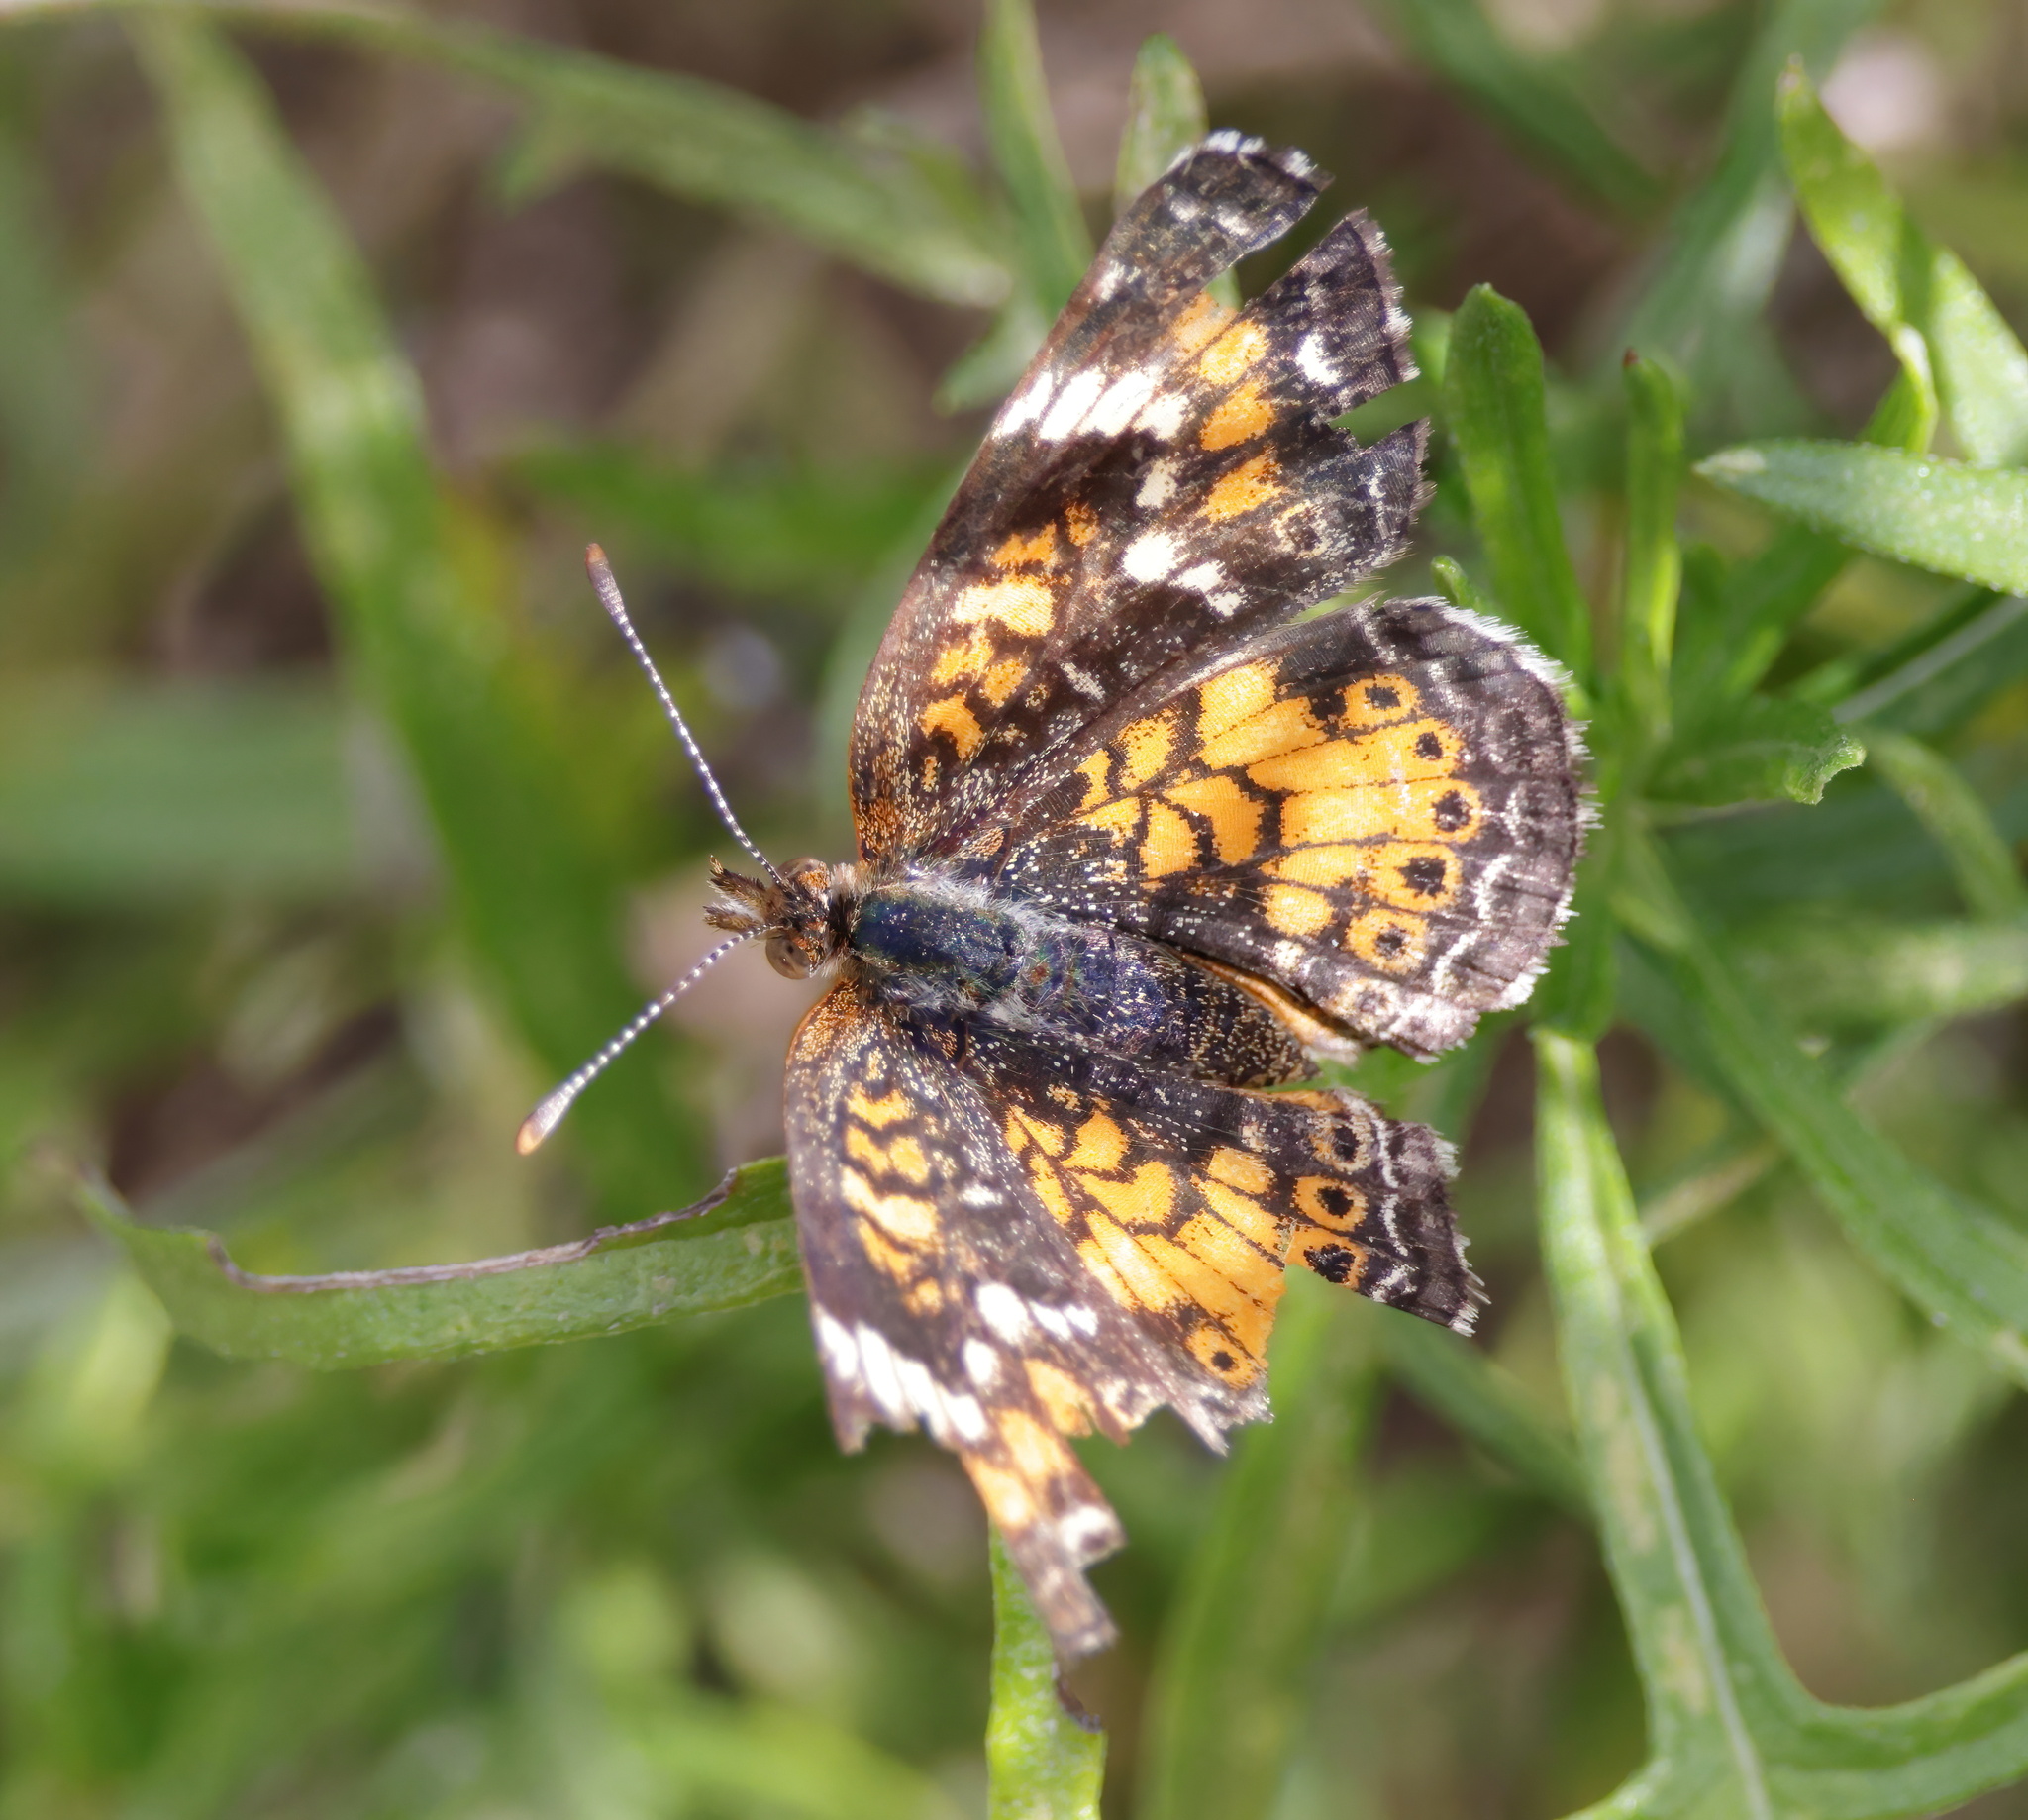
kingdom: Animalia
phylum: Arthropoda
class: Insecta
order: Lepidoptera
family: Nymphalidae
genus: Phyciodes
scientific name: Phyciodes phaon
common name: Phaon crescent
